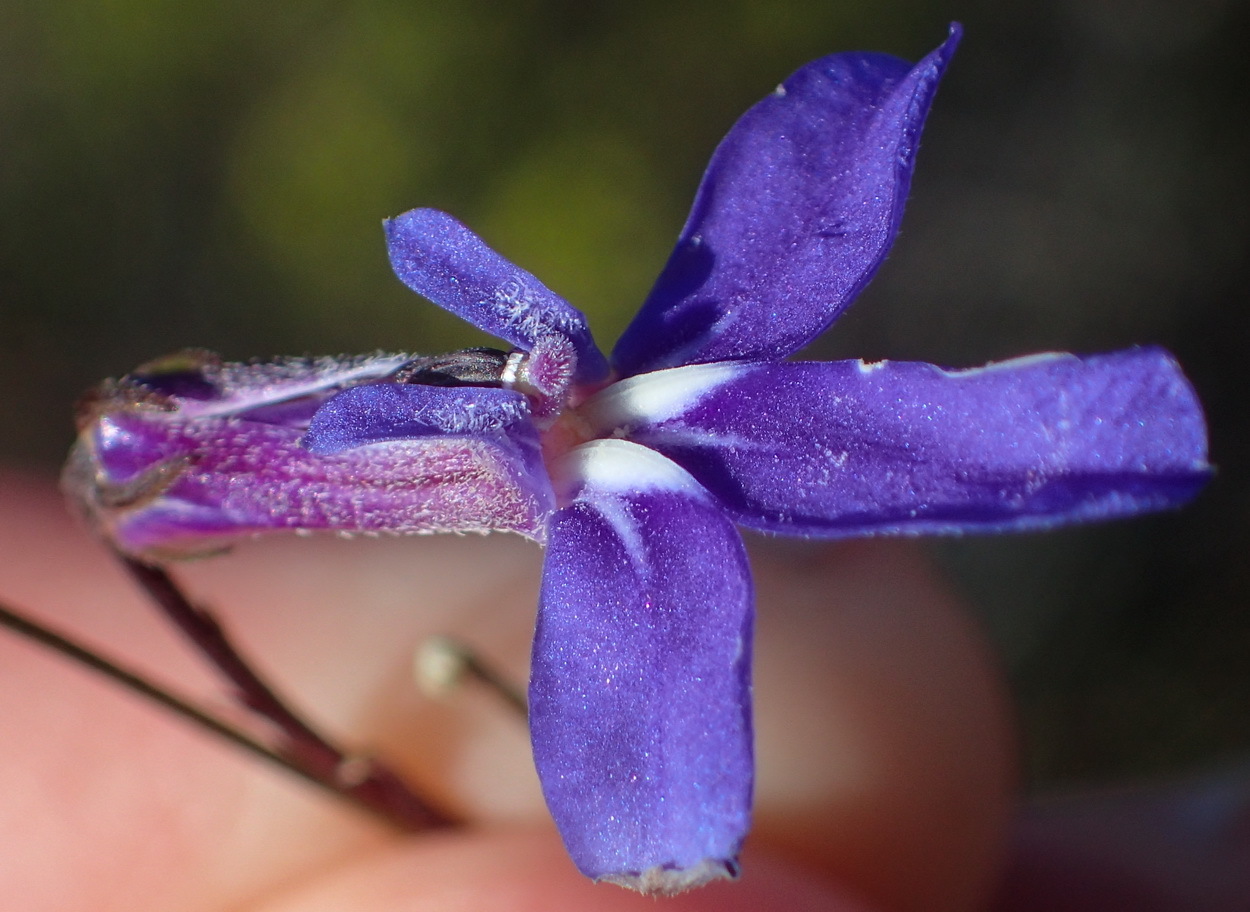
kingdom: Plantae
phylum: Tracheophyta
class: Magnoliopsida
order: Asterales
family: Campanulaceae
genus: Lobelia
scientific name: Lobelia tomentosa
